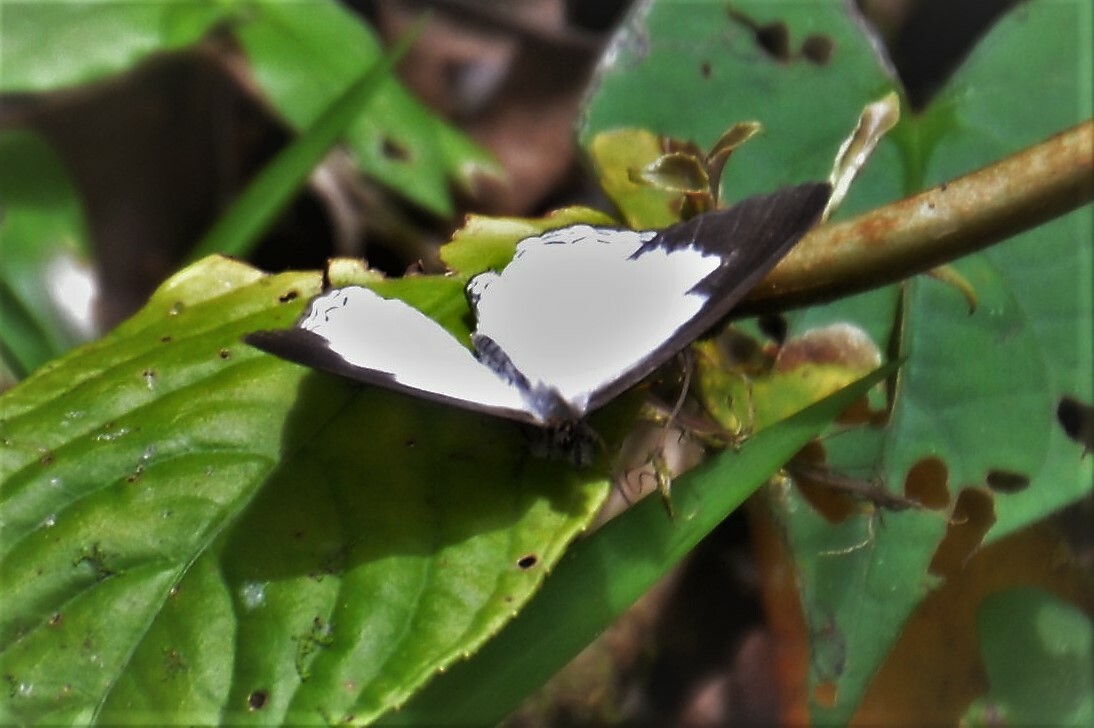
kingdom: Animalia
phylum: Arthropoda
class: Insecta
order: Lepidoptera
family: Nymphalidae
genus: Pareuptychia
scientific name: Pareuptychia hesione
